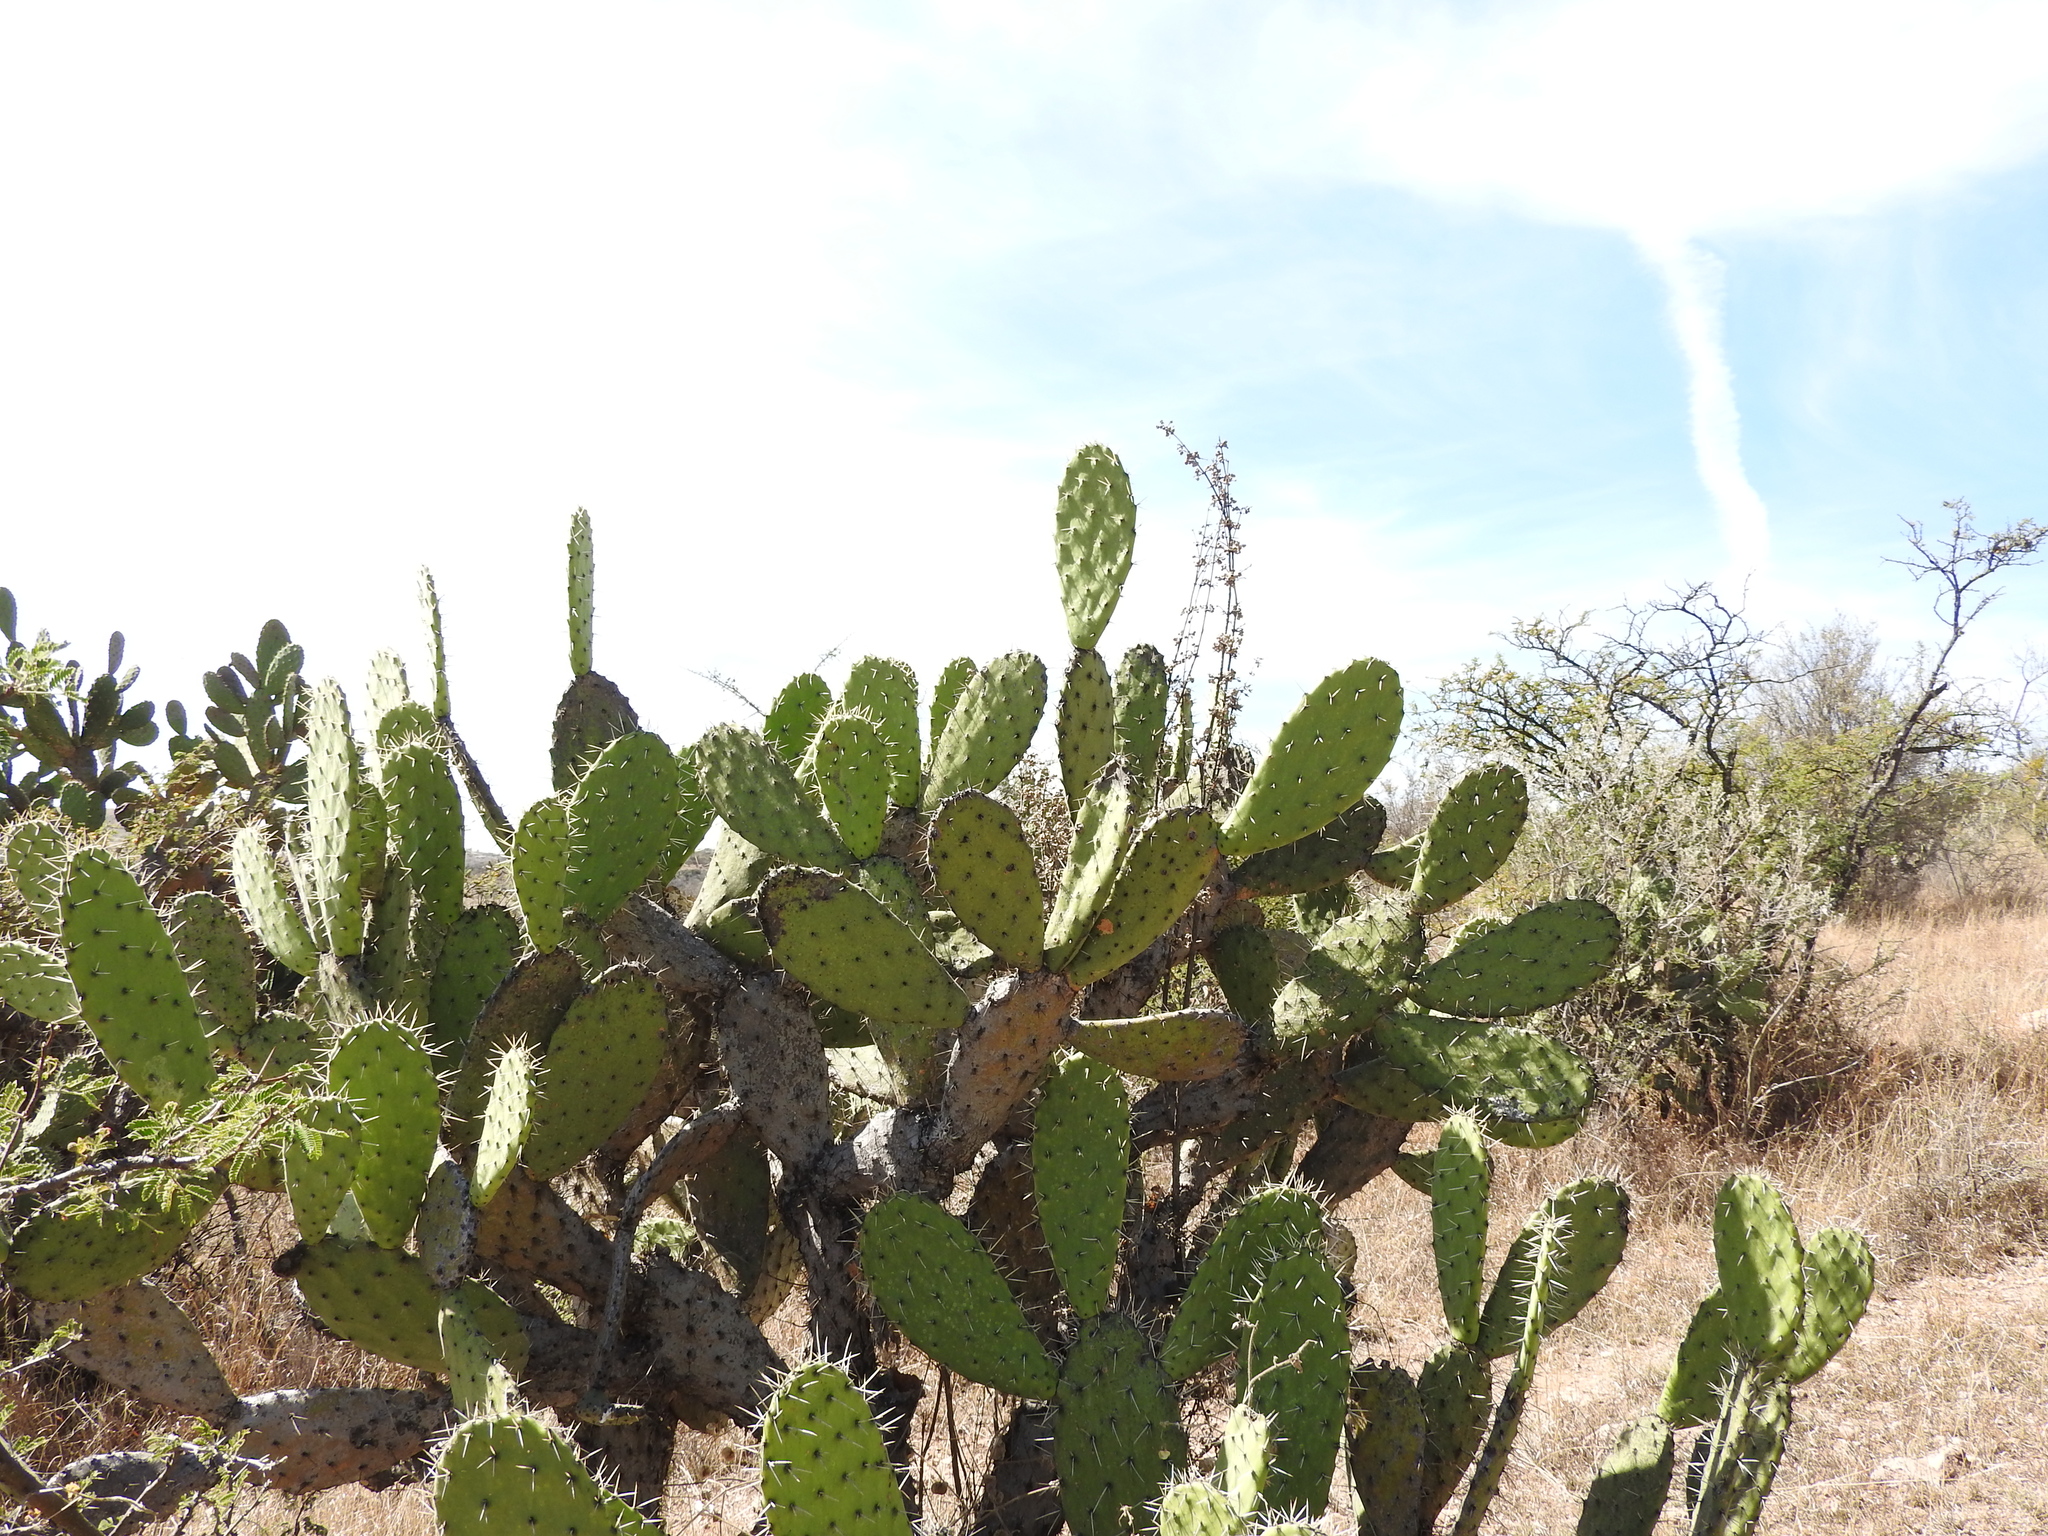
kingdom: Plantae
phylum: Tracheophyta
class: Magnoliopsida
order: Caryophyllales
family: Cactaceae
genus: Opuntia
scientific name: Opuntia jaliscana
